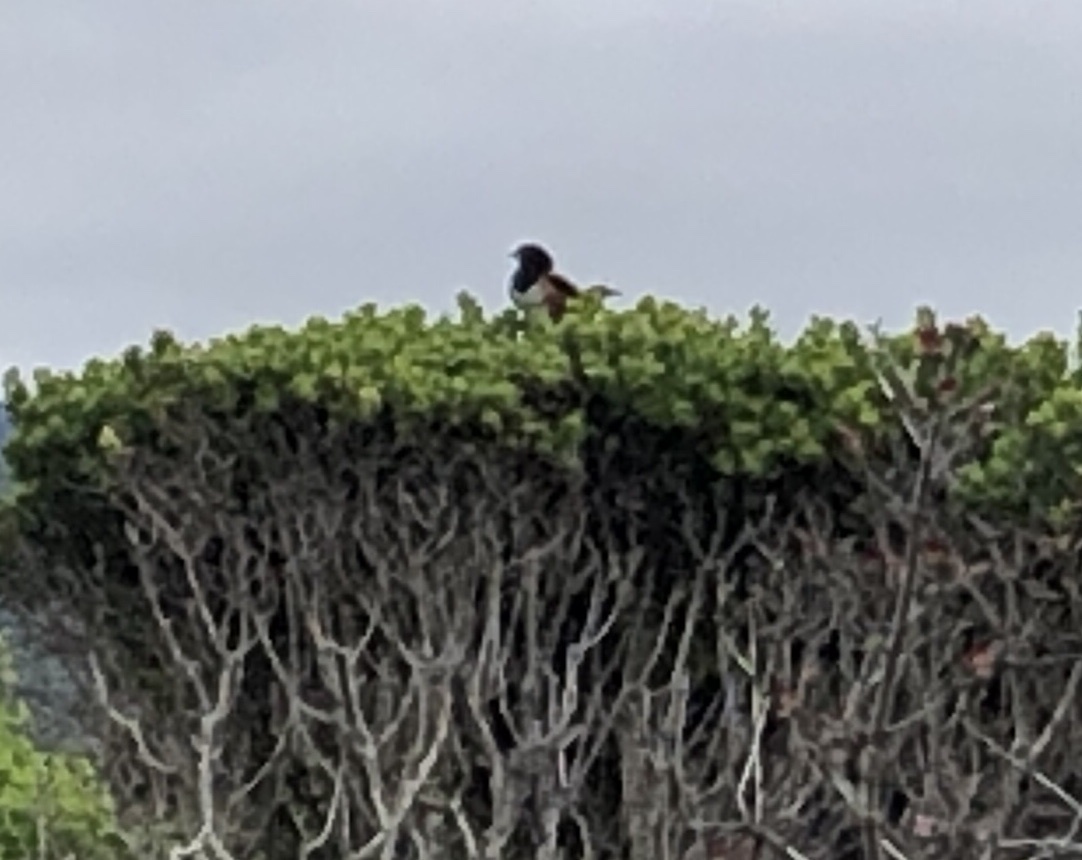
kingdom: Animalia
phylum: Chordata
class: Aves
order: Passeriformes
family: Passerellidae
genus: Pipilo
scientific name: Pipilo maculatus
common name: Spotted towhee
